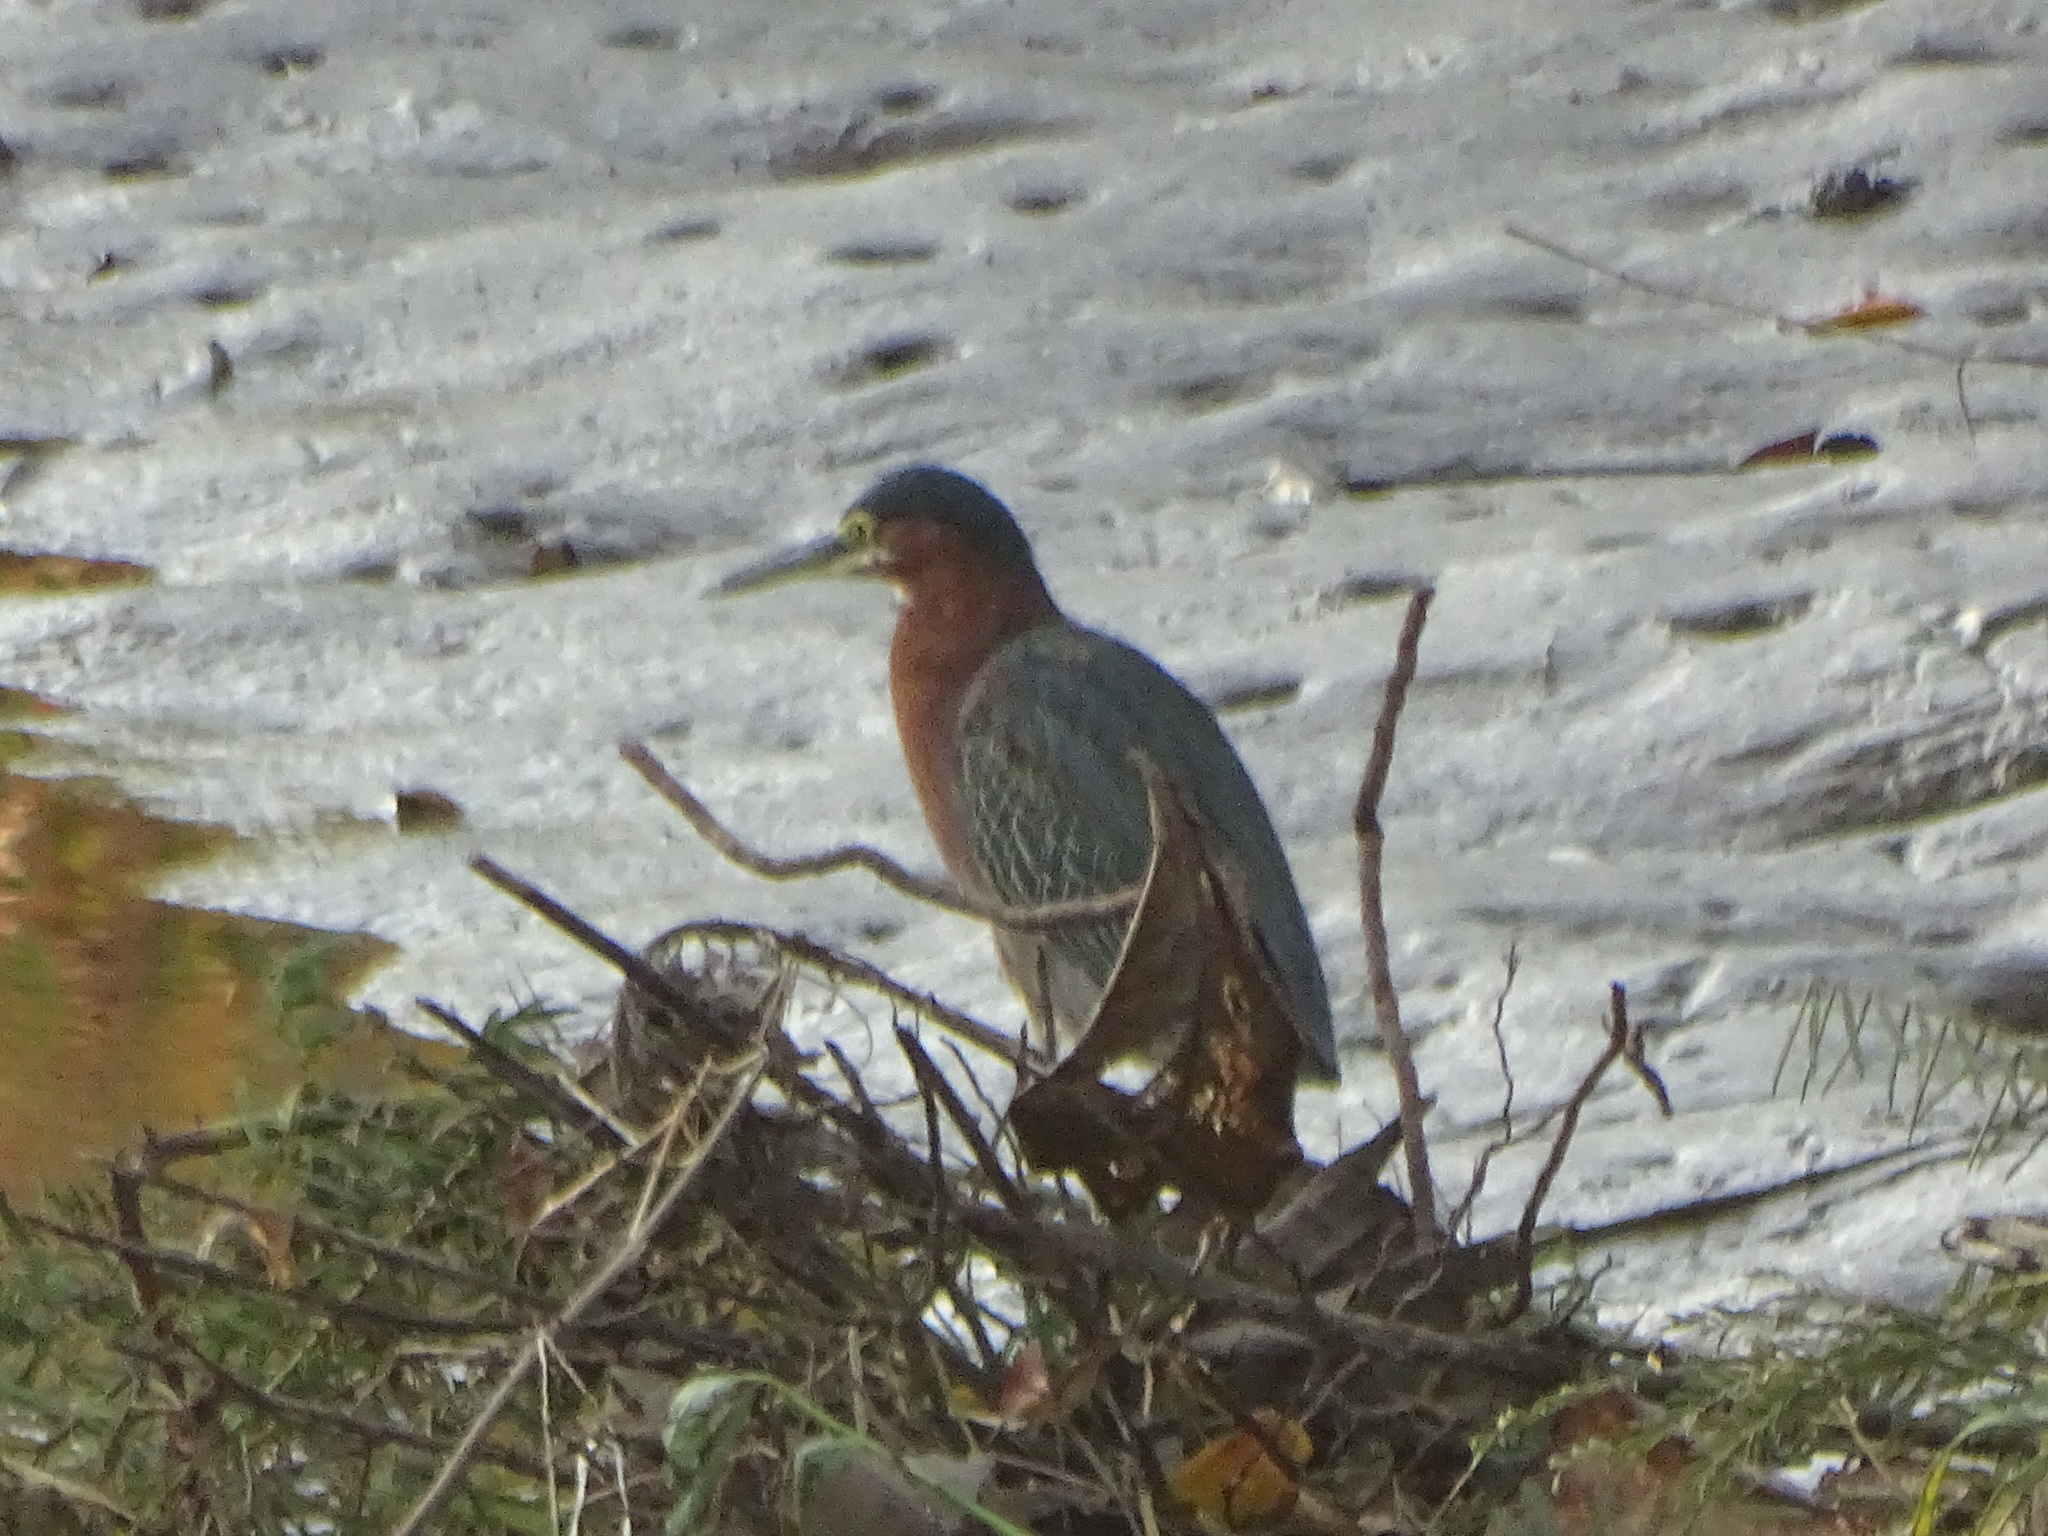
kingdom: Animalia
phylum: Chordata
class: Aves
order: Pelecaniformes
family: Ardeidae
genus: Butorides
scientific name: Butorides virescens
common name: Green heron
